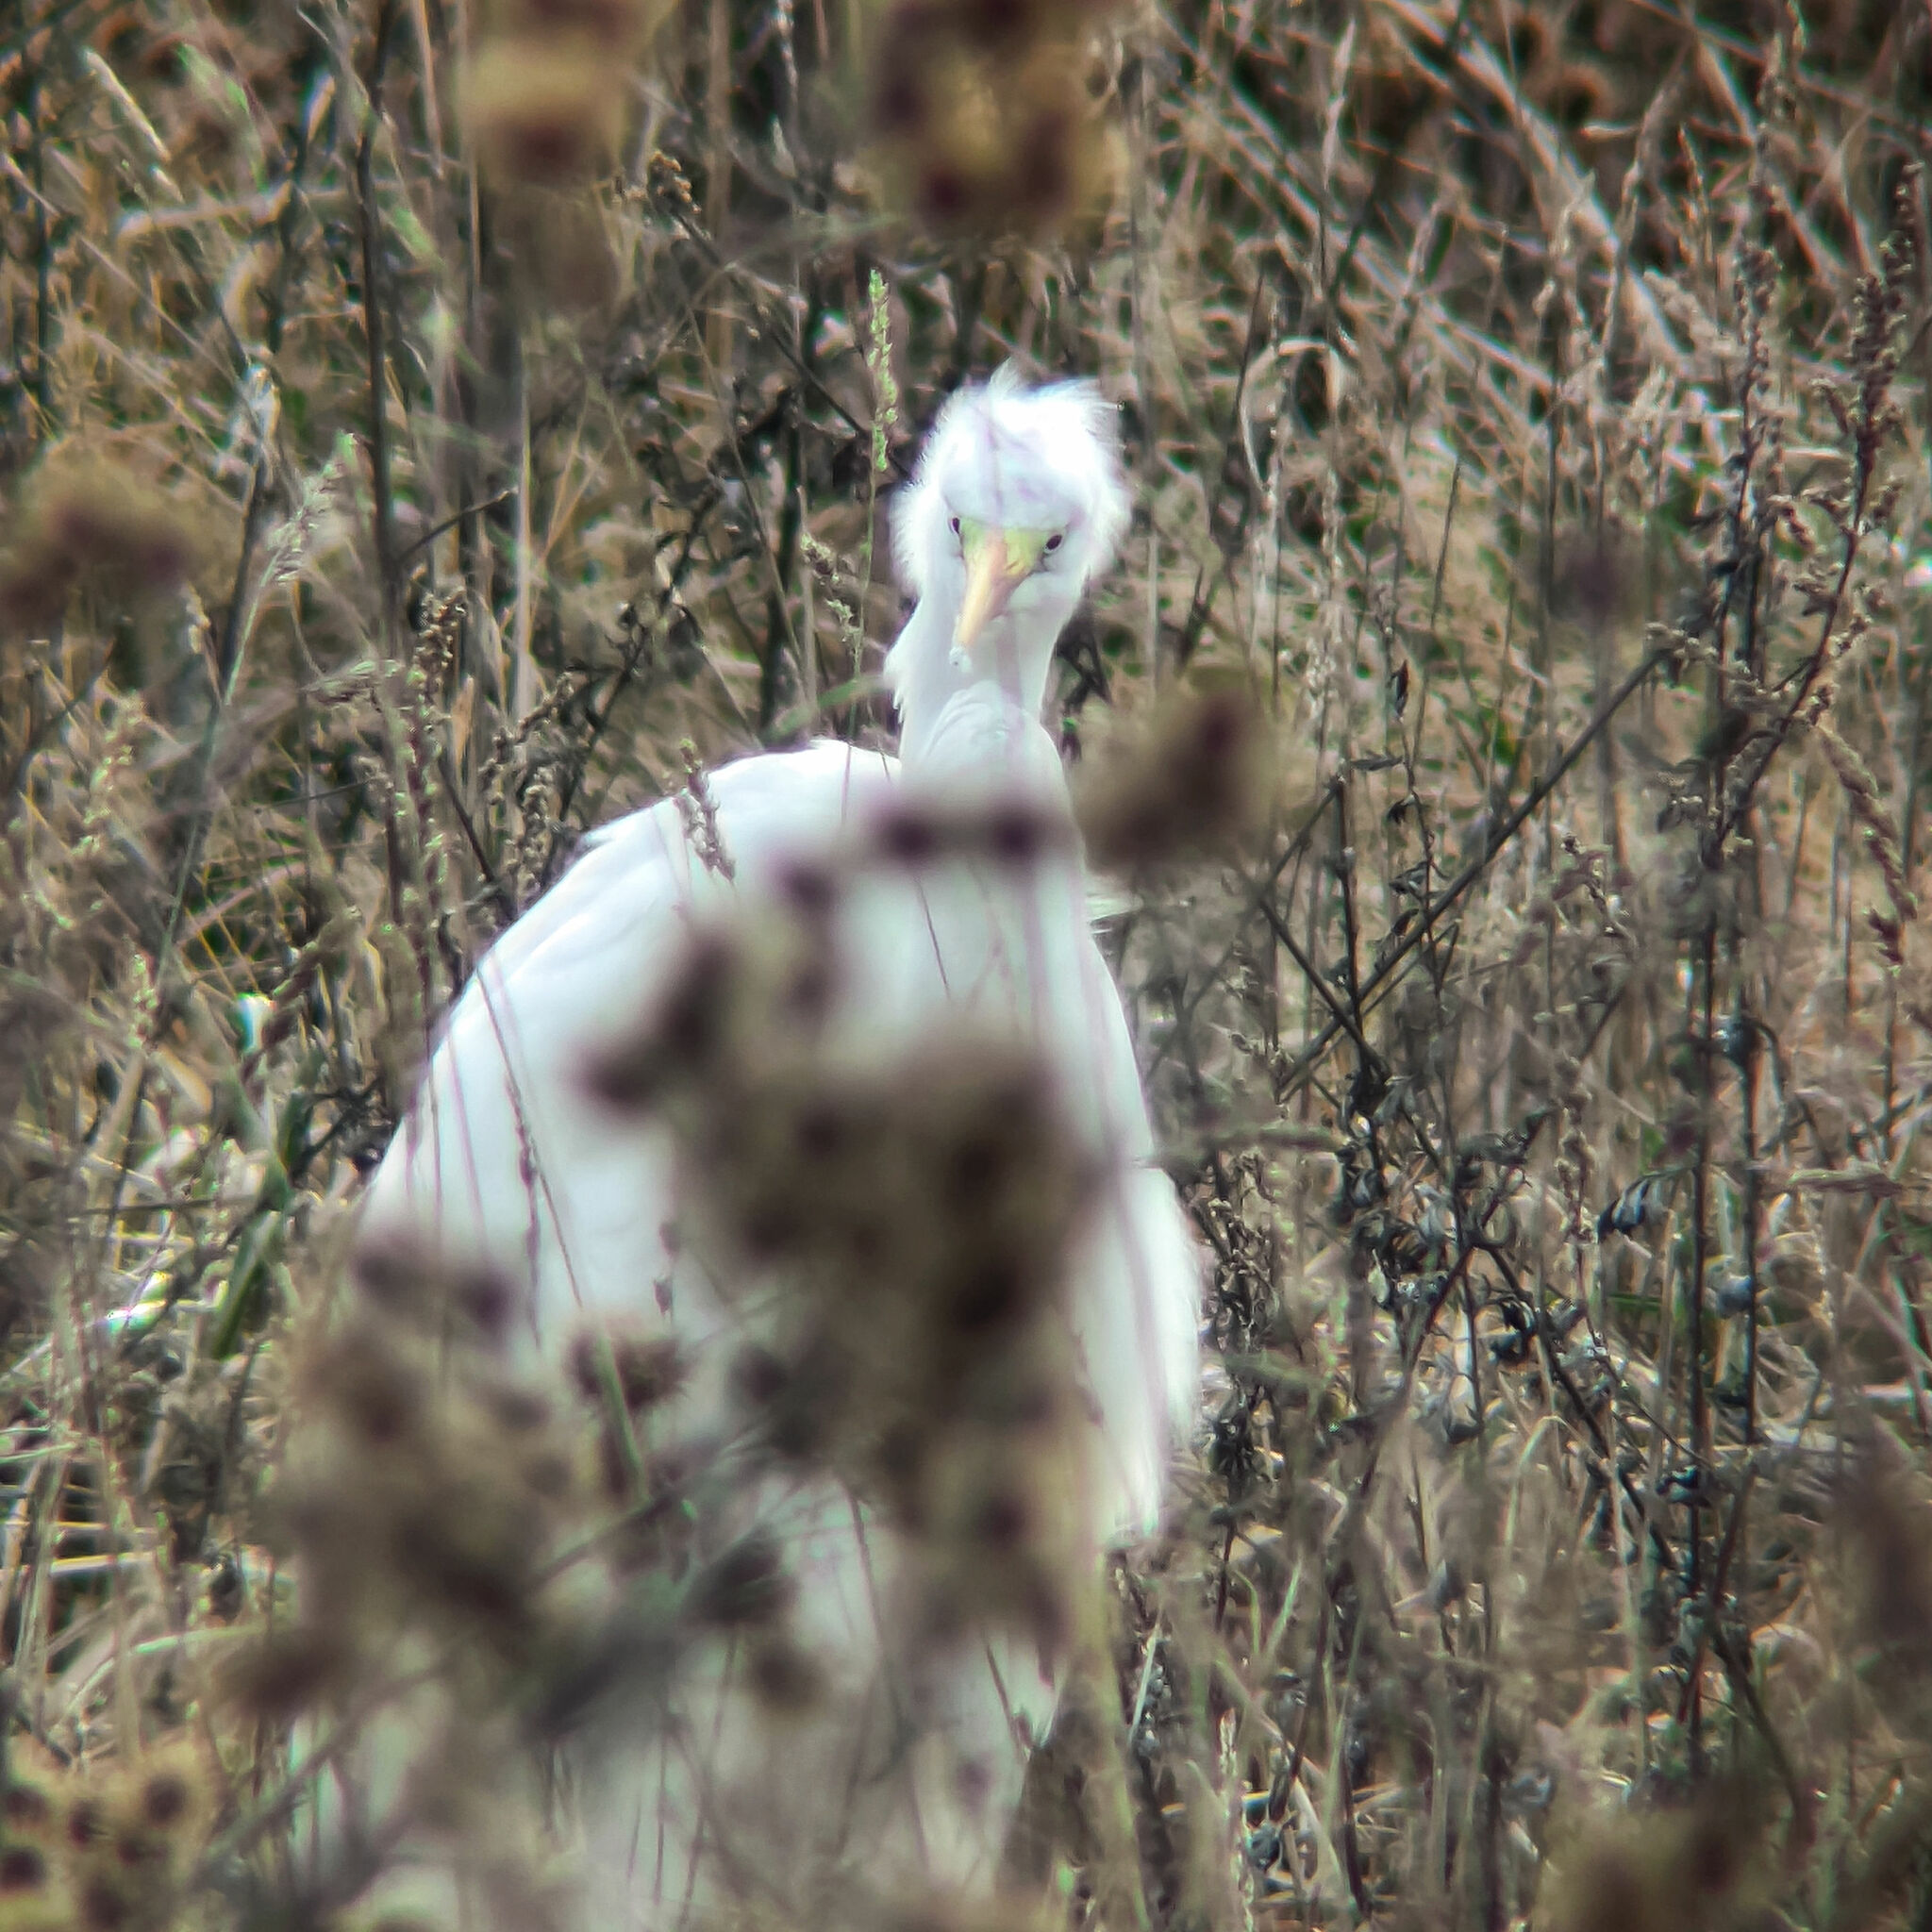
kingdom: Animalia
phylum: Chordata
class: Aves
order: Pelecaniformes
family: Ardeidae
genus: Ardea
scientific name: Ardea alba
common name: Great egret
